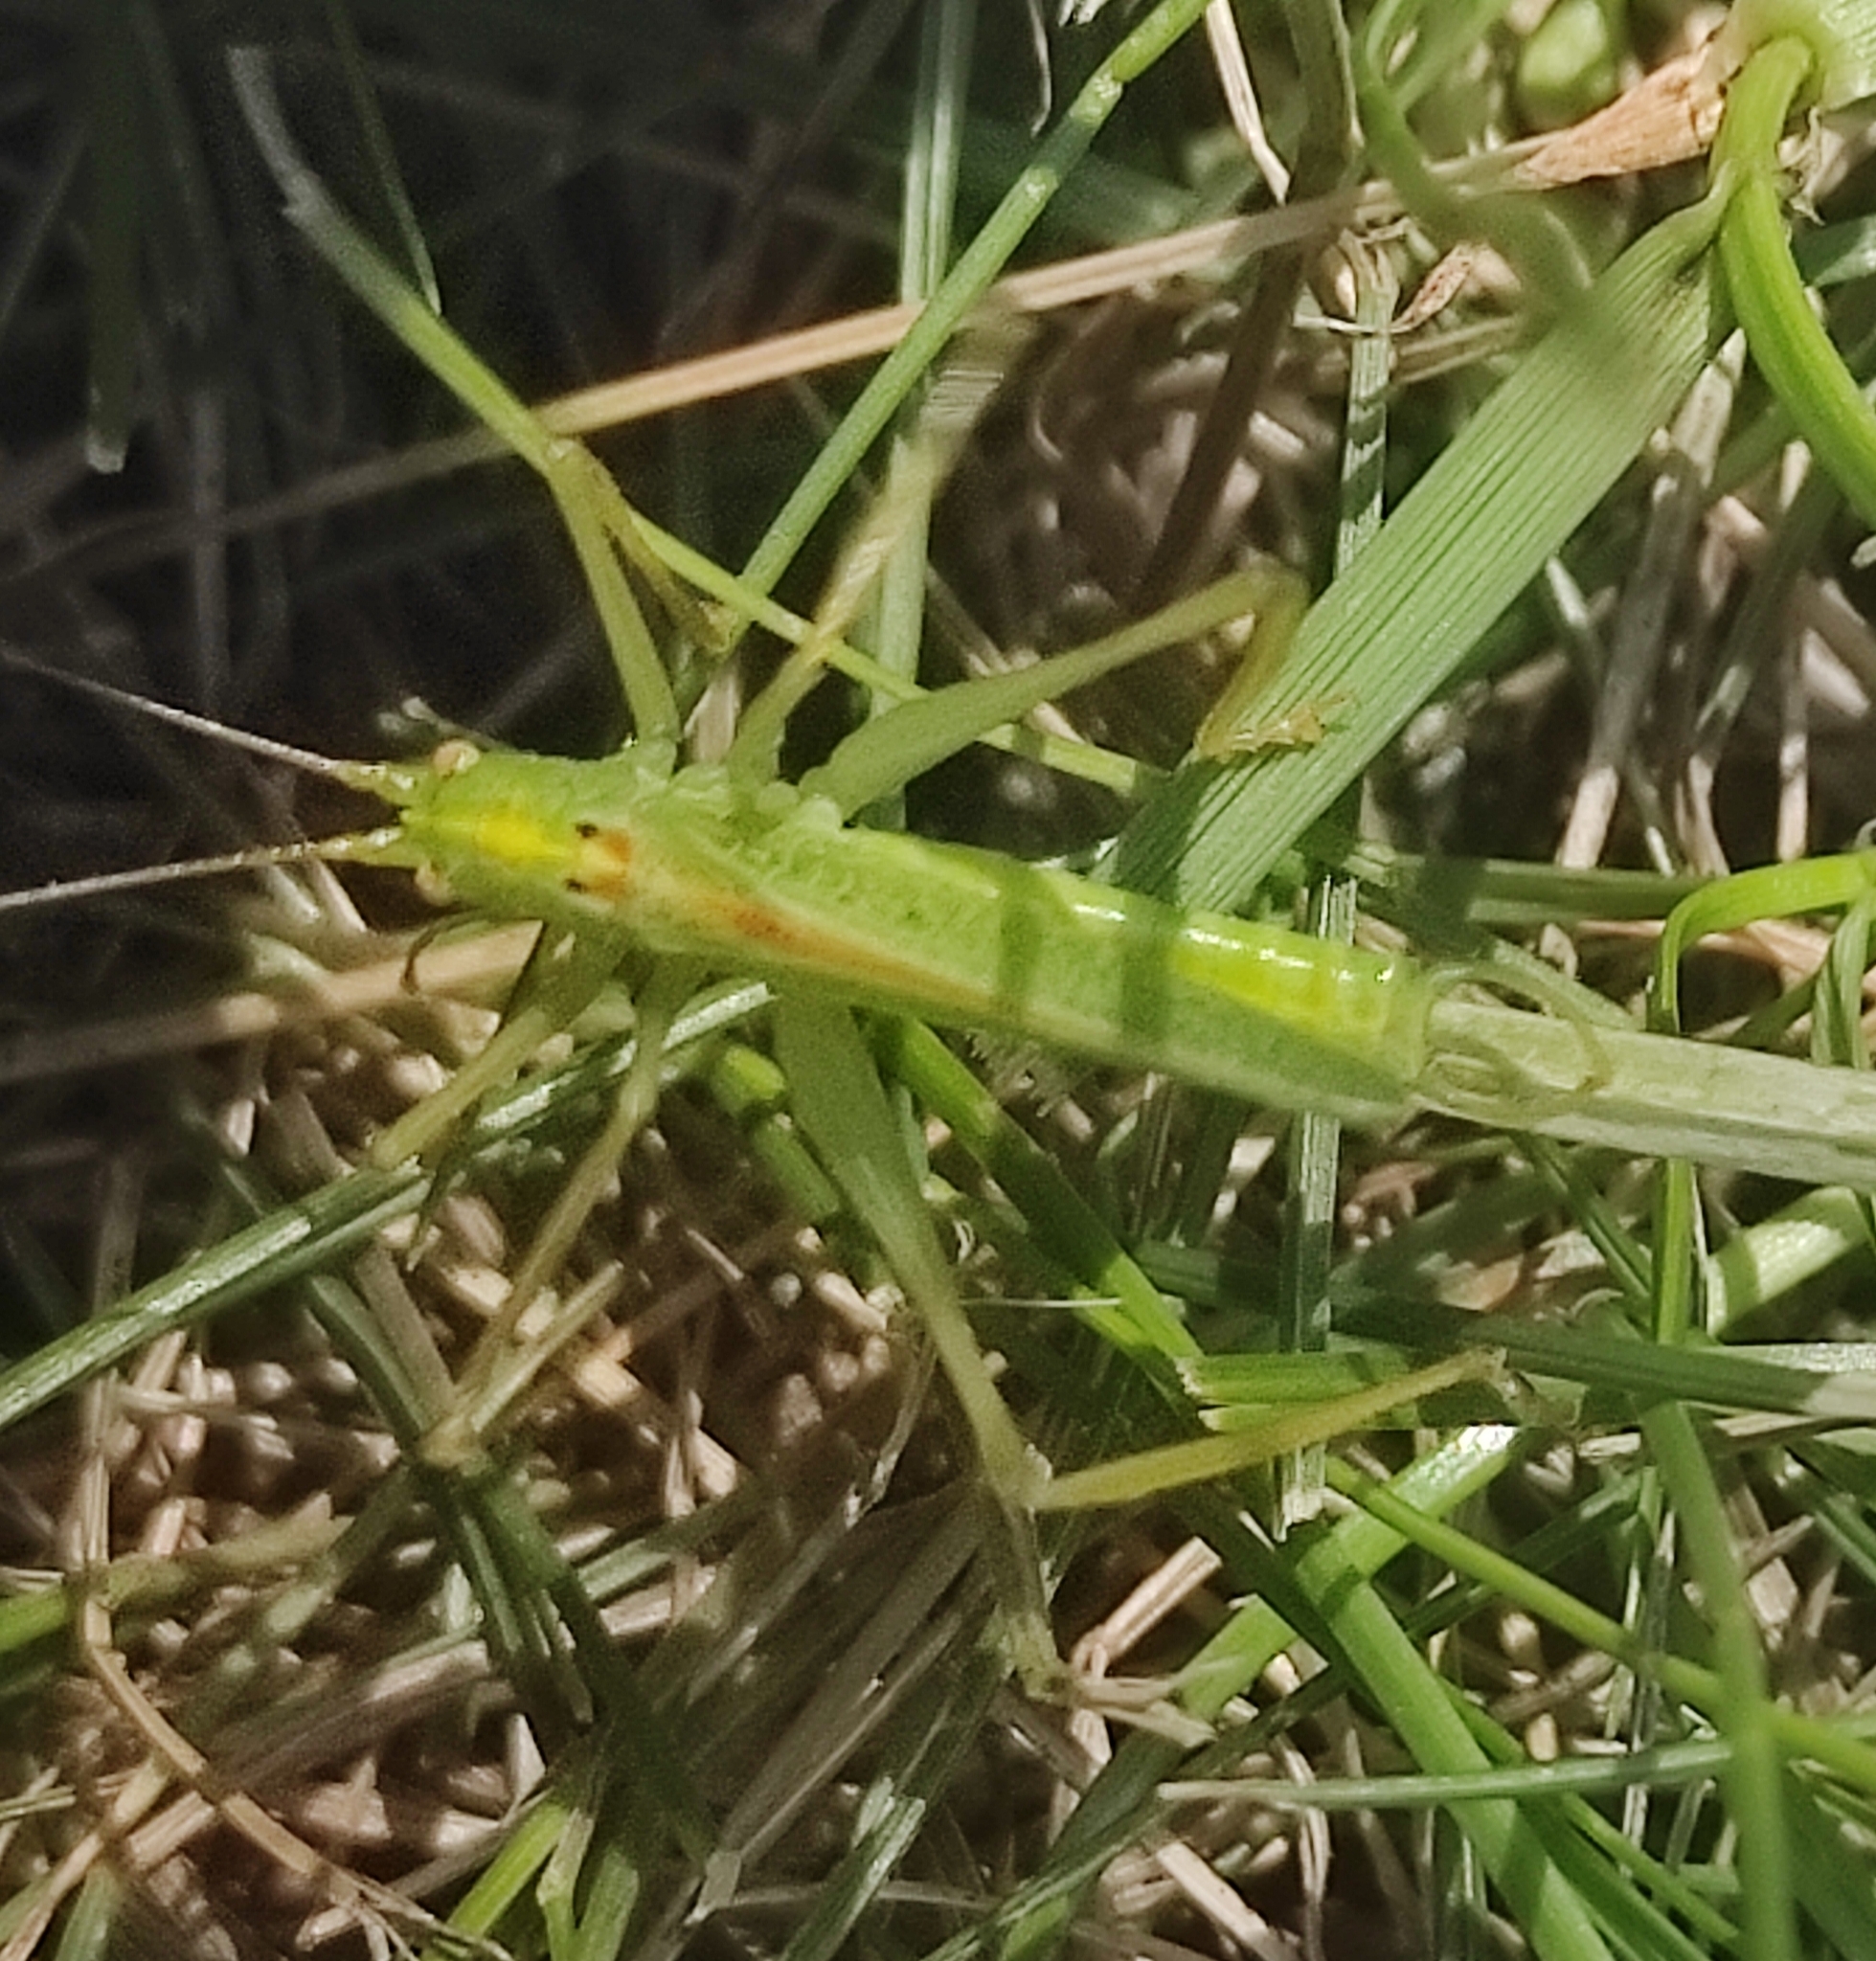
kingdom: Animalia
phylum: Arthropoda
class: Insecta
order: Orthoptera
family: Tettigoniidae
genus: Meconema
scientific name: Meconema thalassinum
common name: Oak bush-cricket
